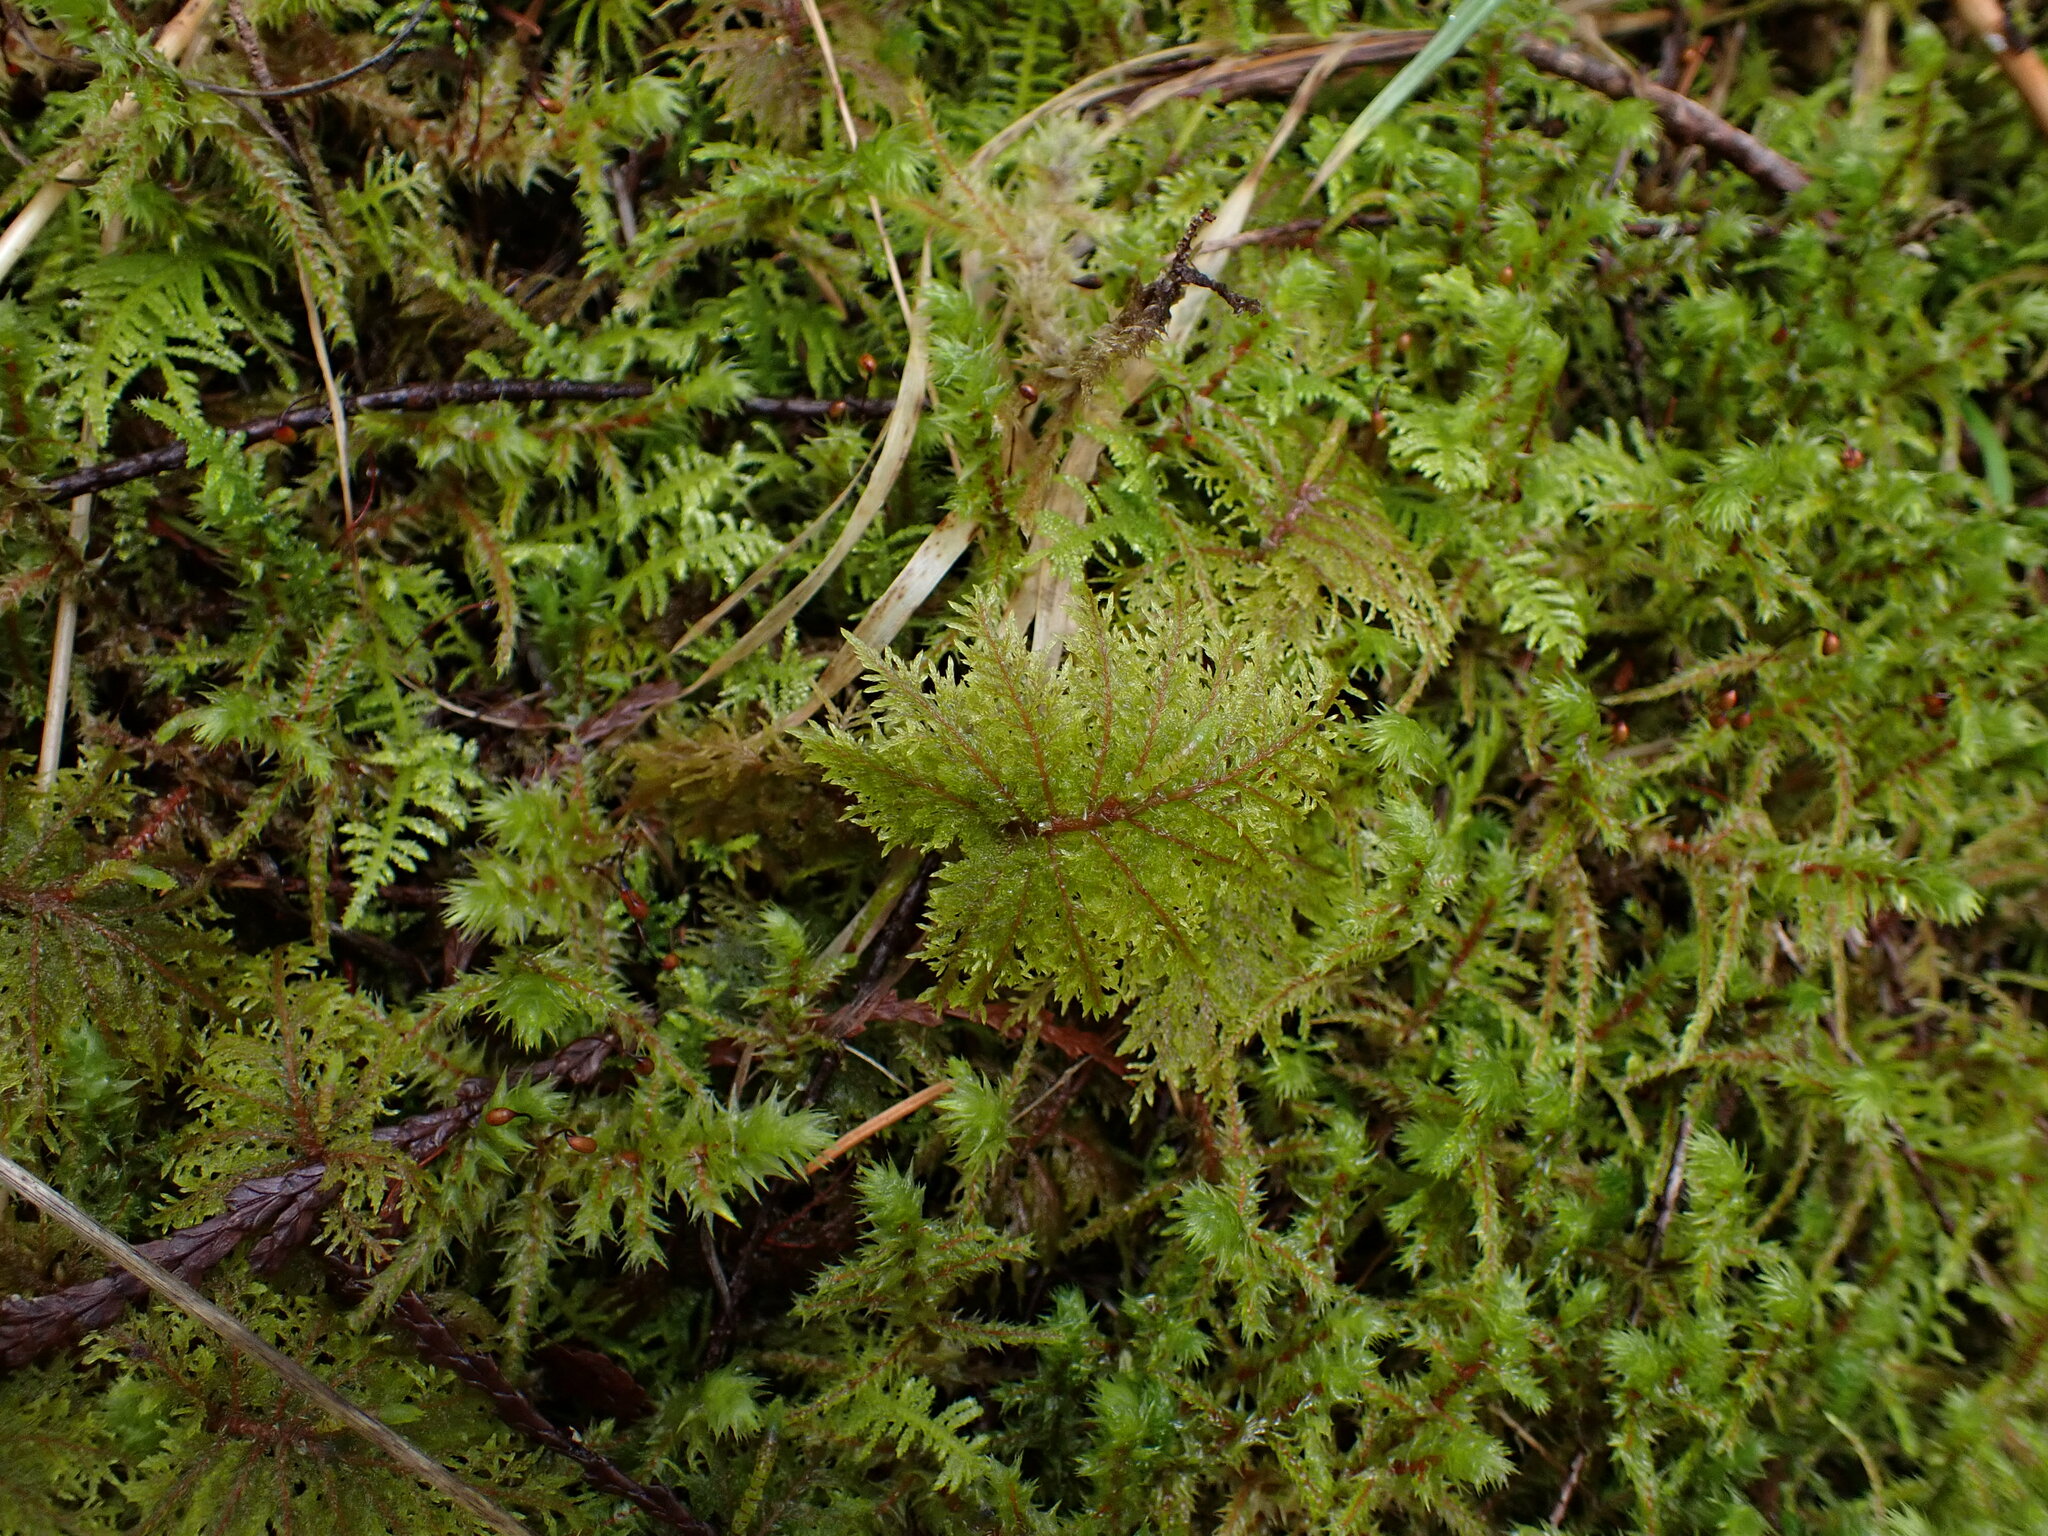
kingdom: Plantae
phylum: Bryophyta
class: Bryopsida
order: Hypnales
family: Hylocomiaceae
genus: Hylocomium
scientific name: Hylocomium splendens
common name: Stairstep moss
